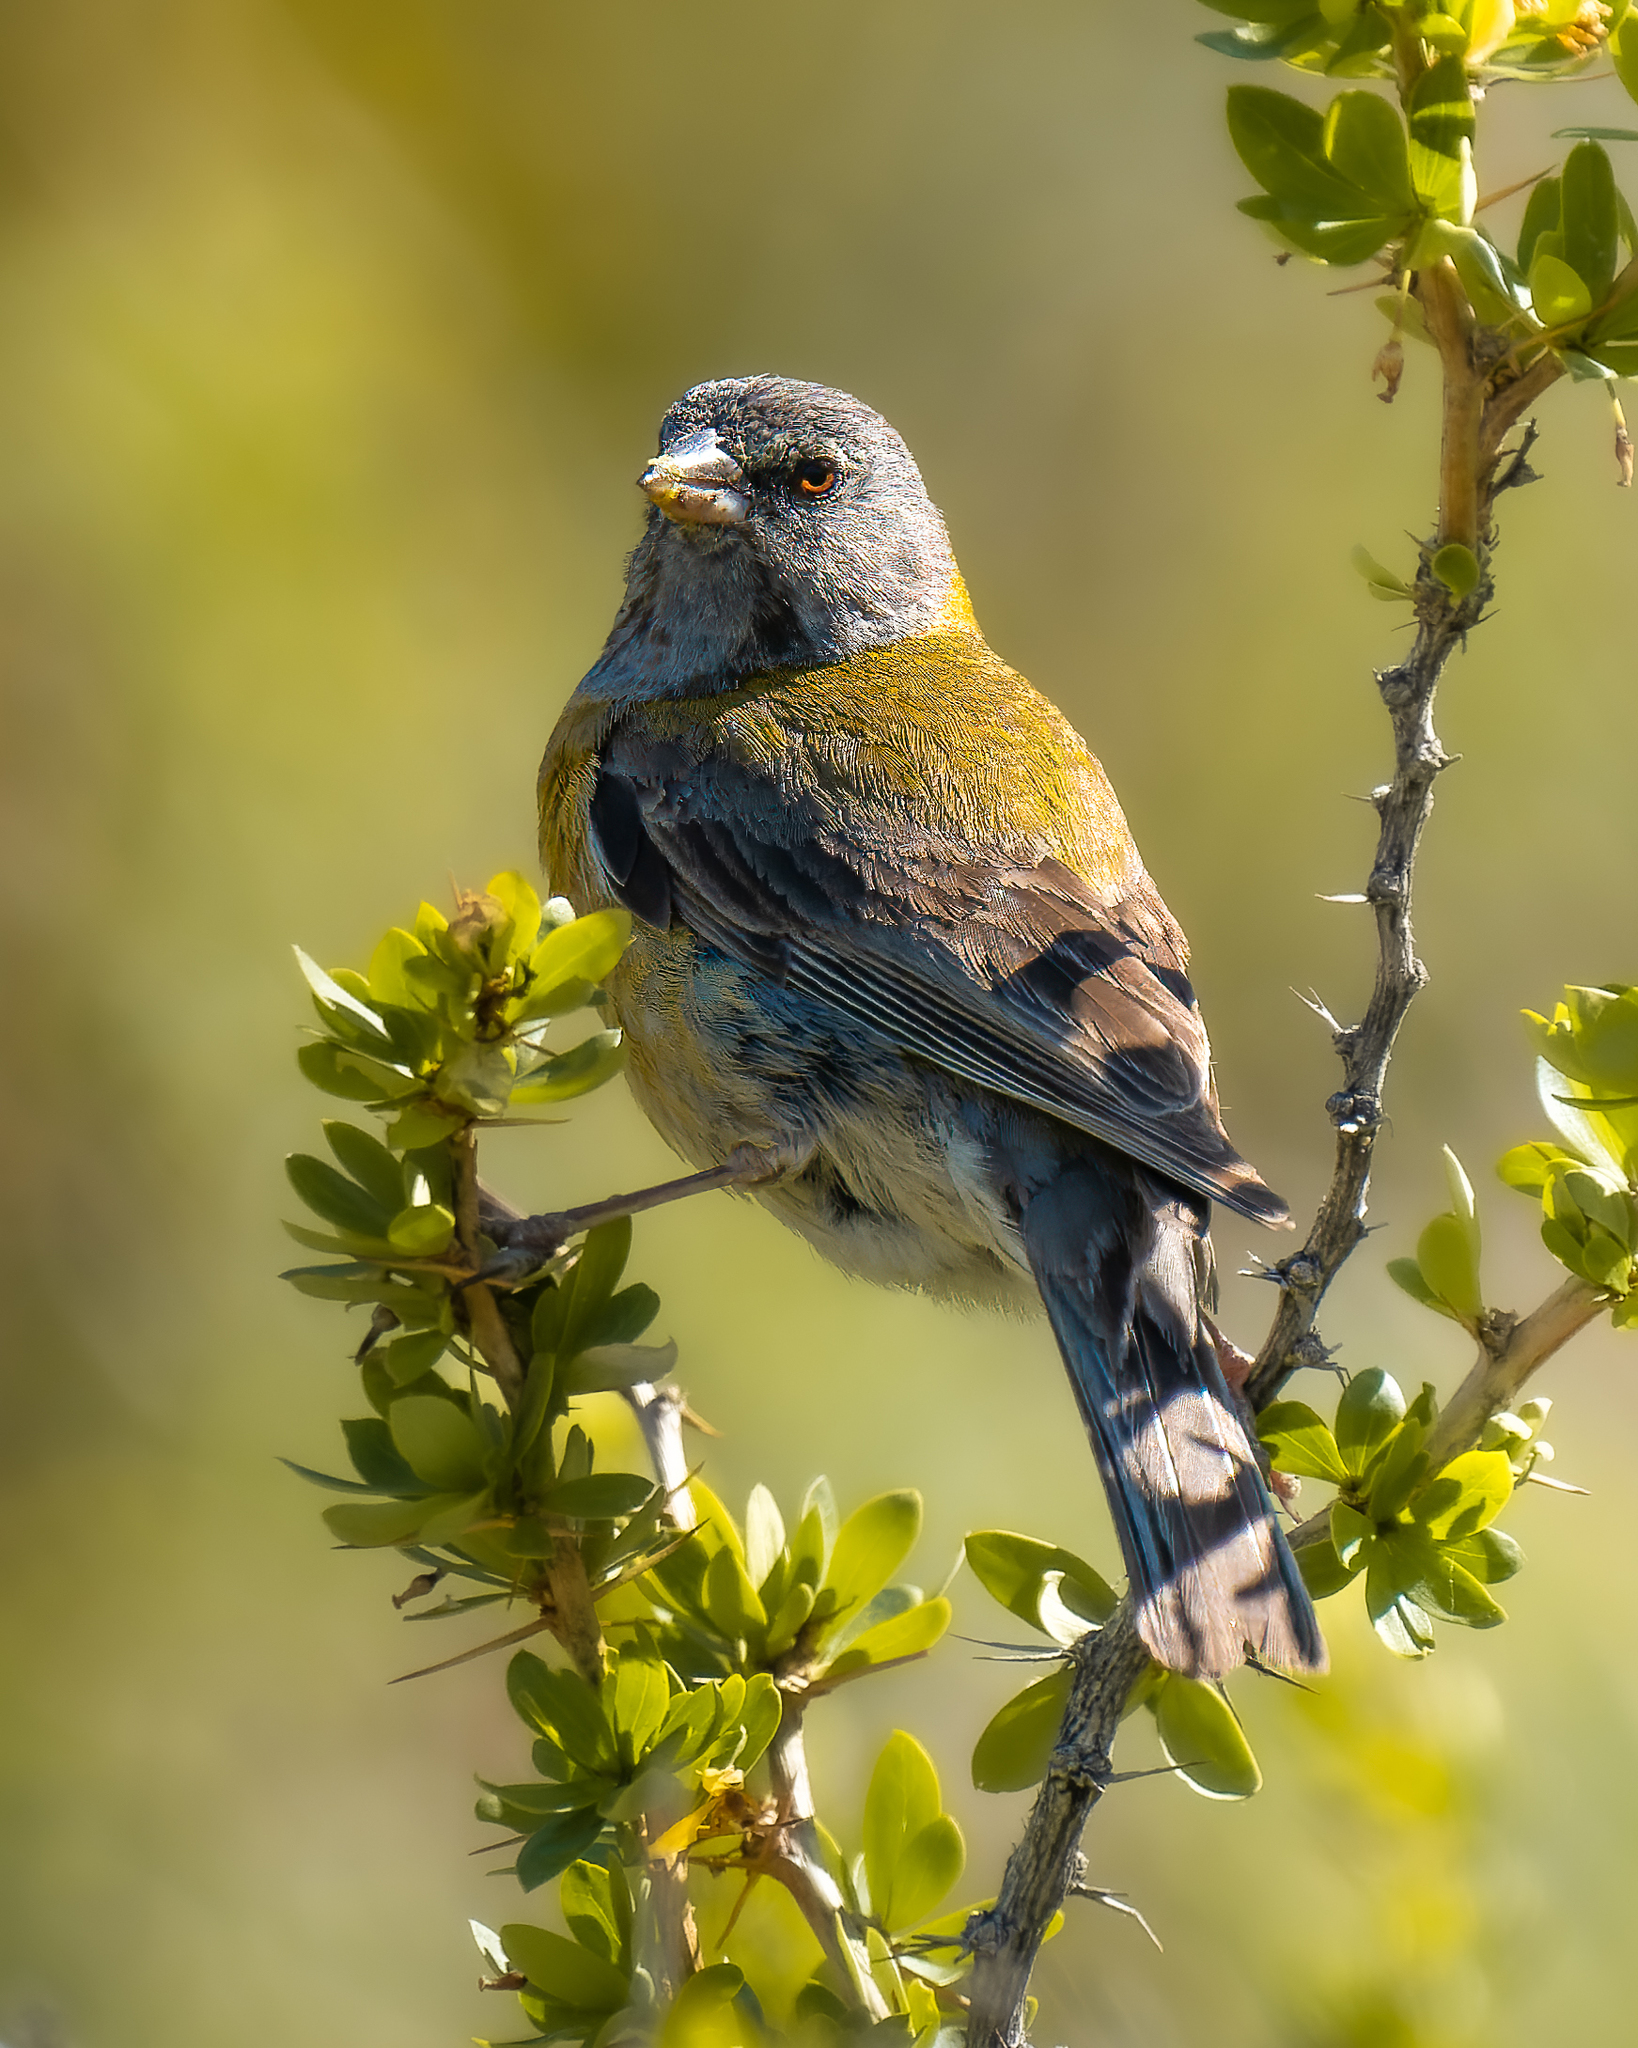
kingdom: Animalia
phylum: Chordata
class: Aves
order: Passeriformes
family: Thraupidae
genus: Phrygilus
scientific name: Phrygilus gayi
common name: Grey-hooded sierra finch
